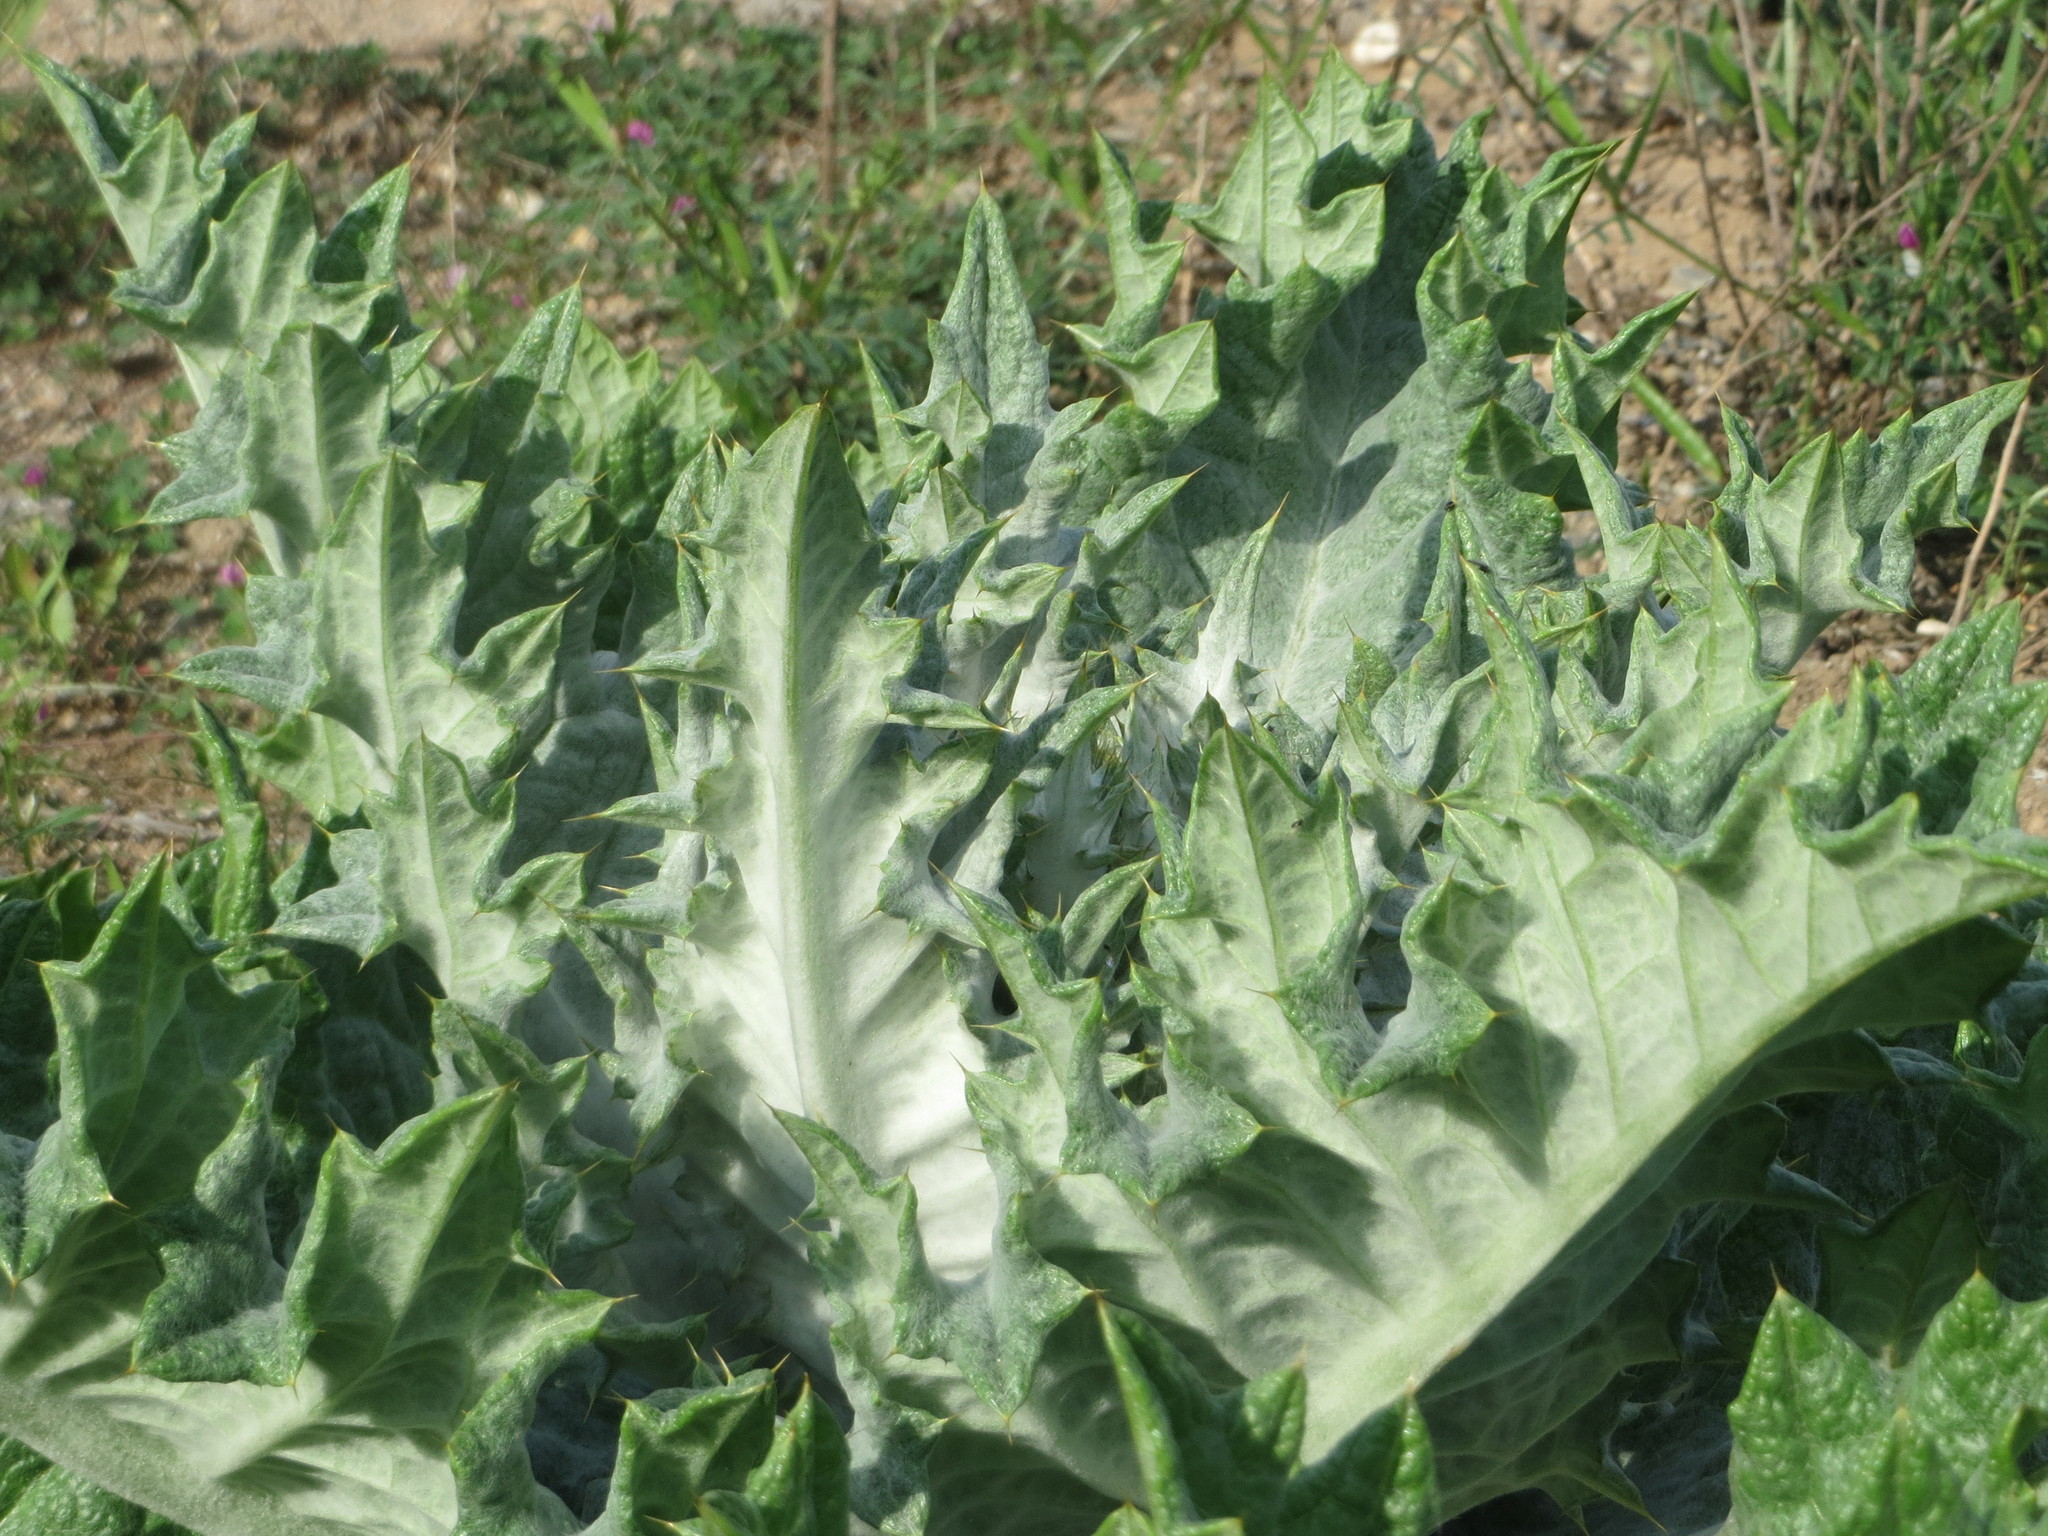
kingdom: Plantae
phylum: Tracheophyta
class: Magnoliopsida
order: Asterales
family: Asteraceae
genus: Onopordum
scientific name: Onopordum acanthium
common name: Scotch thistle
